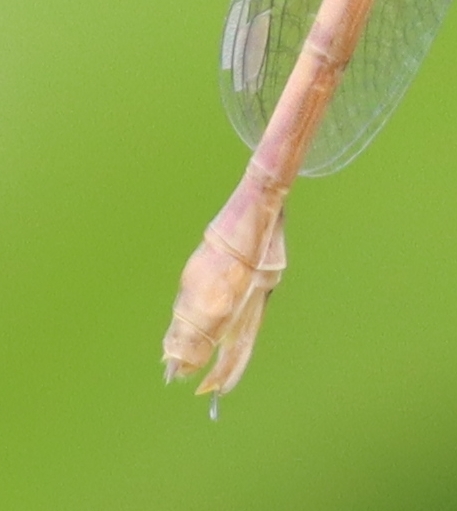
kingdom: Animalia
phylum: Arthropoda
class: Insecta
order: Odonata
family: Lestidae
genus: Lestes
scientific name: Lestes forcipatus
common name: Sweetflag spreadwing
